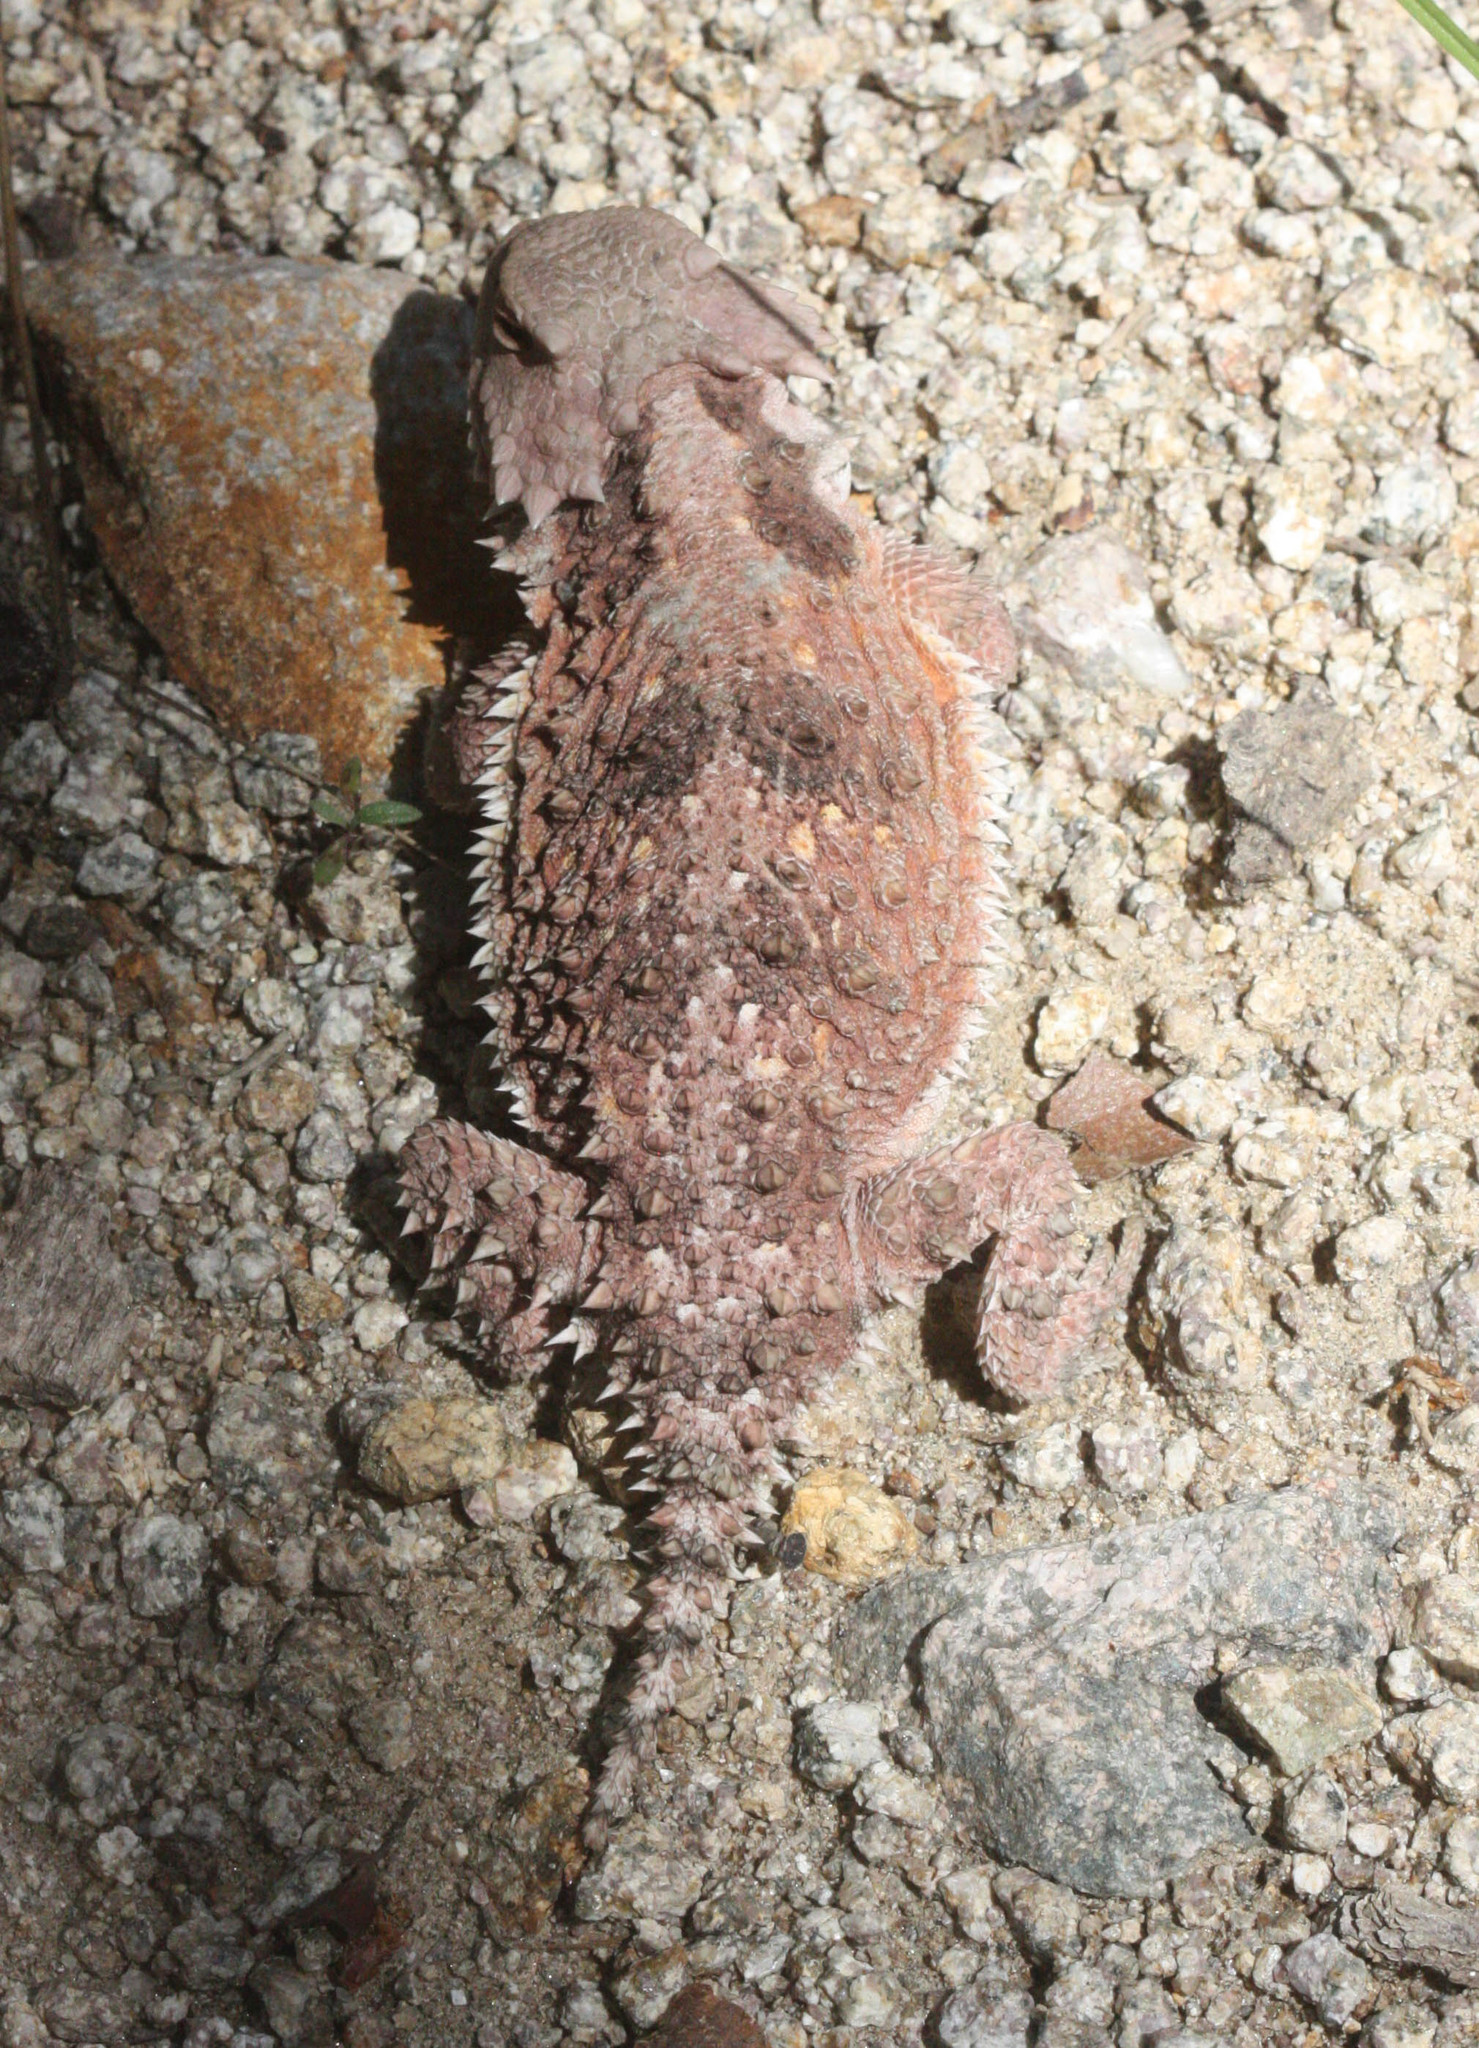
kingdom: Animalia
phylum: Chordata
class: Squamata
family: Phrynosomatidae
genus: Phrynosoma
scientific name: Phrynosoma hernandesi
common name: Greater short-horned lizard
